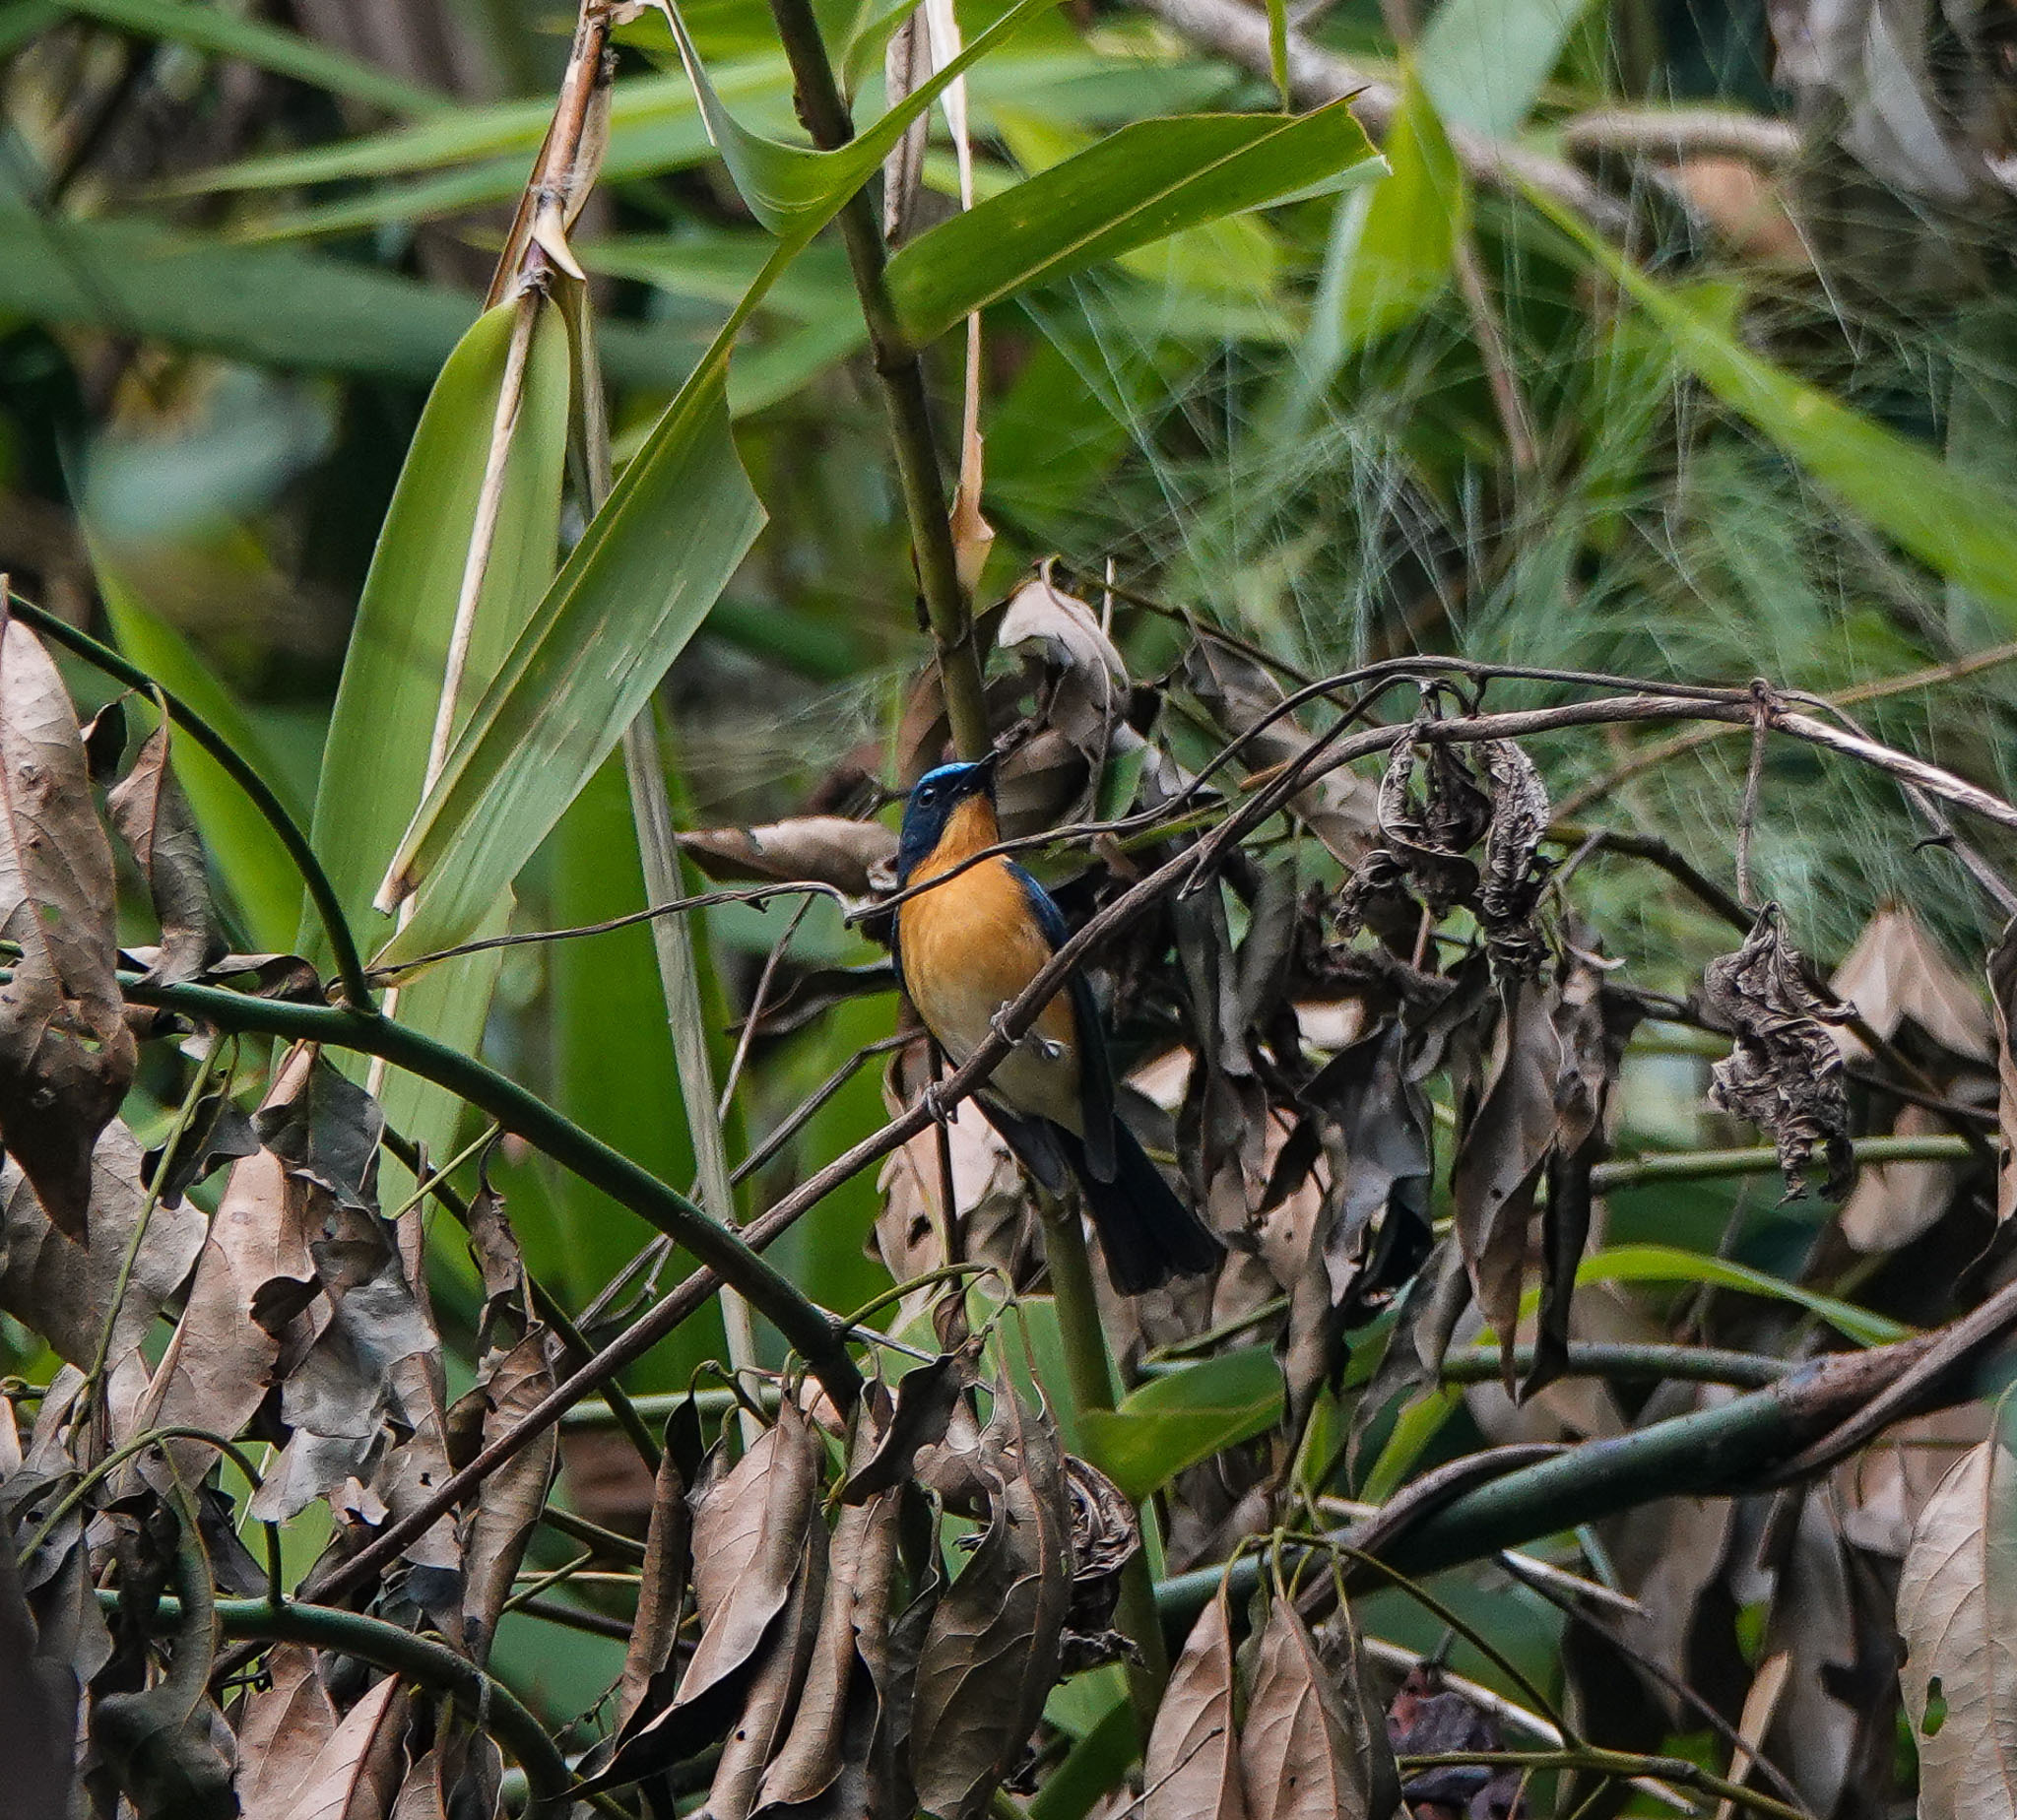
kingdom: Animalia
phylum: Chordata
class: Aves
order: Passeriformes
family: Muscicapidae
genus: Cyornis
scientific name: Cyornis whitei
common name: Hill blue flycatcher
